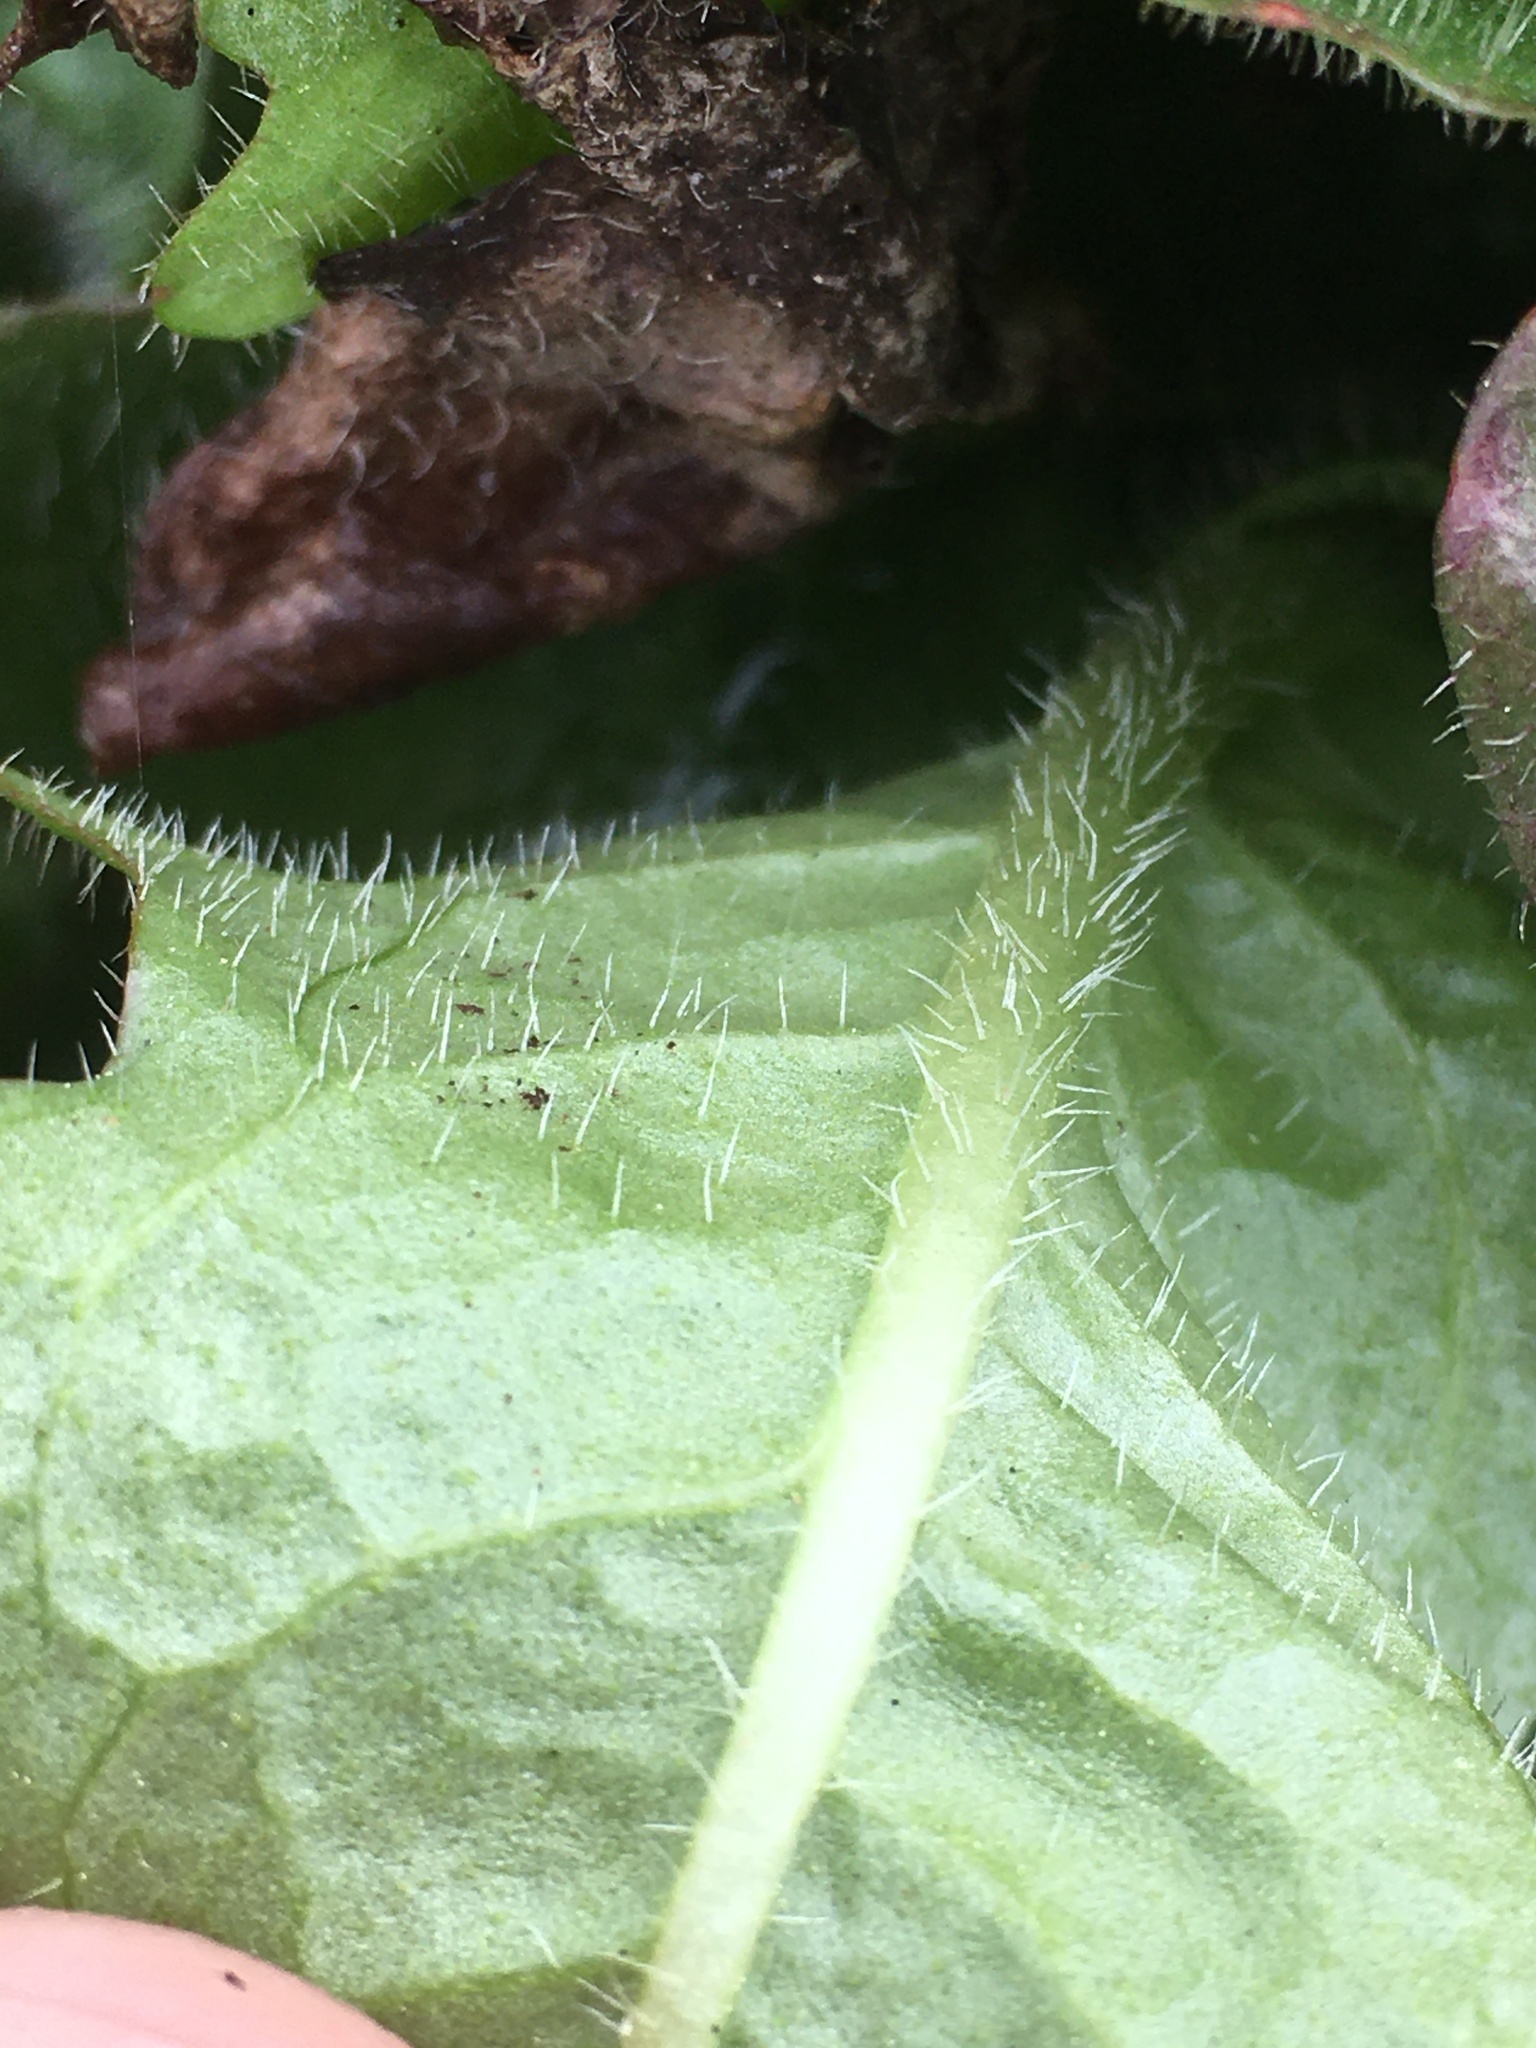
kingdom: Plantae
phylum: Tracheophyta
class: Magnoliopsida
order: Asterales
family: Asteraceae
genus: Hypochaeris
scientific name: Hypochaeris radicata
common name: Flatweed
